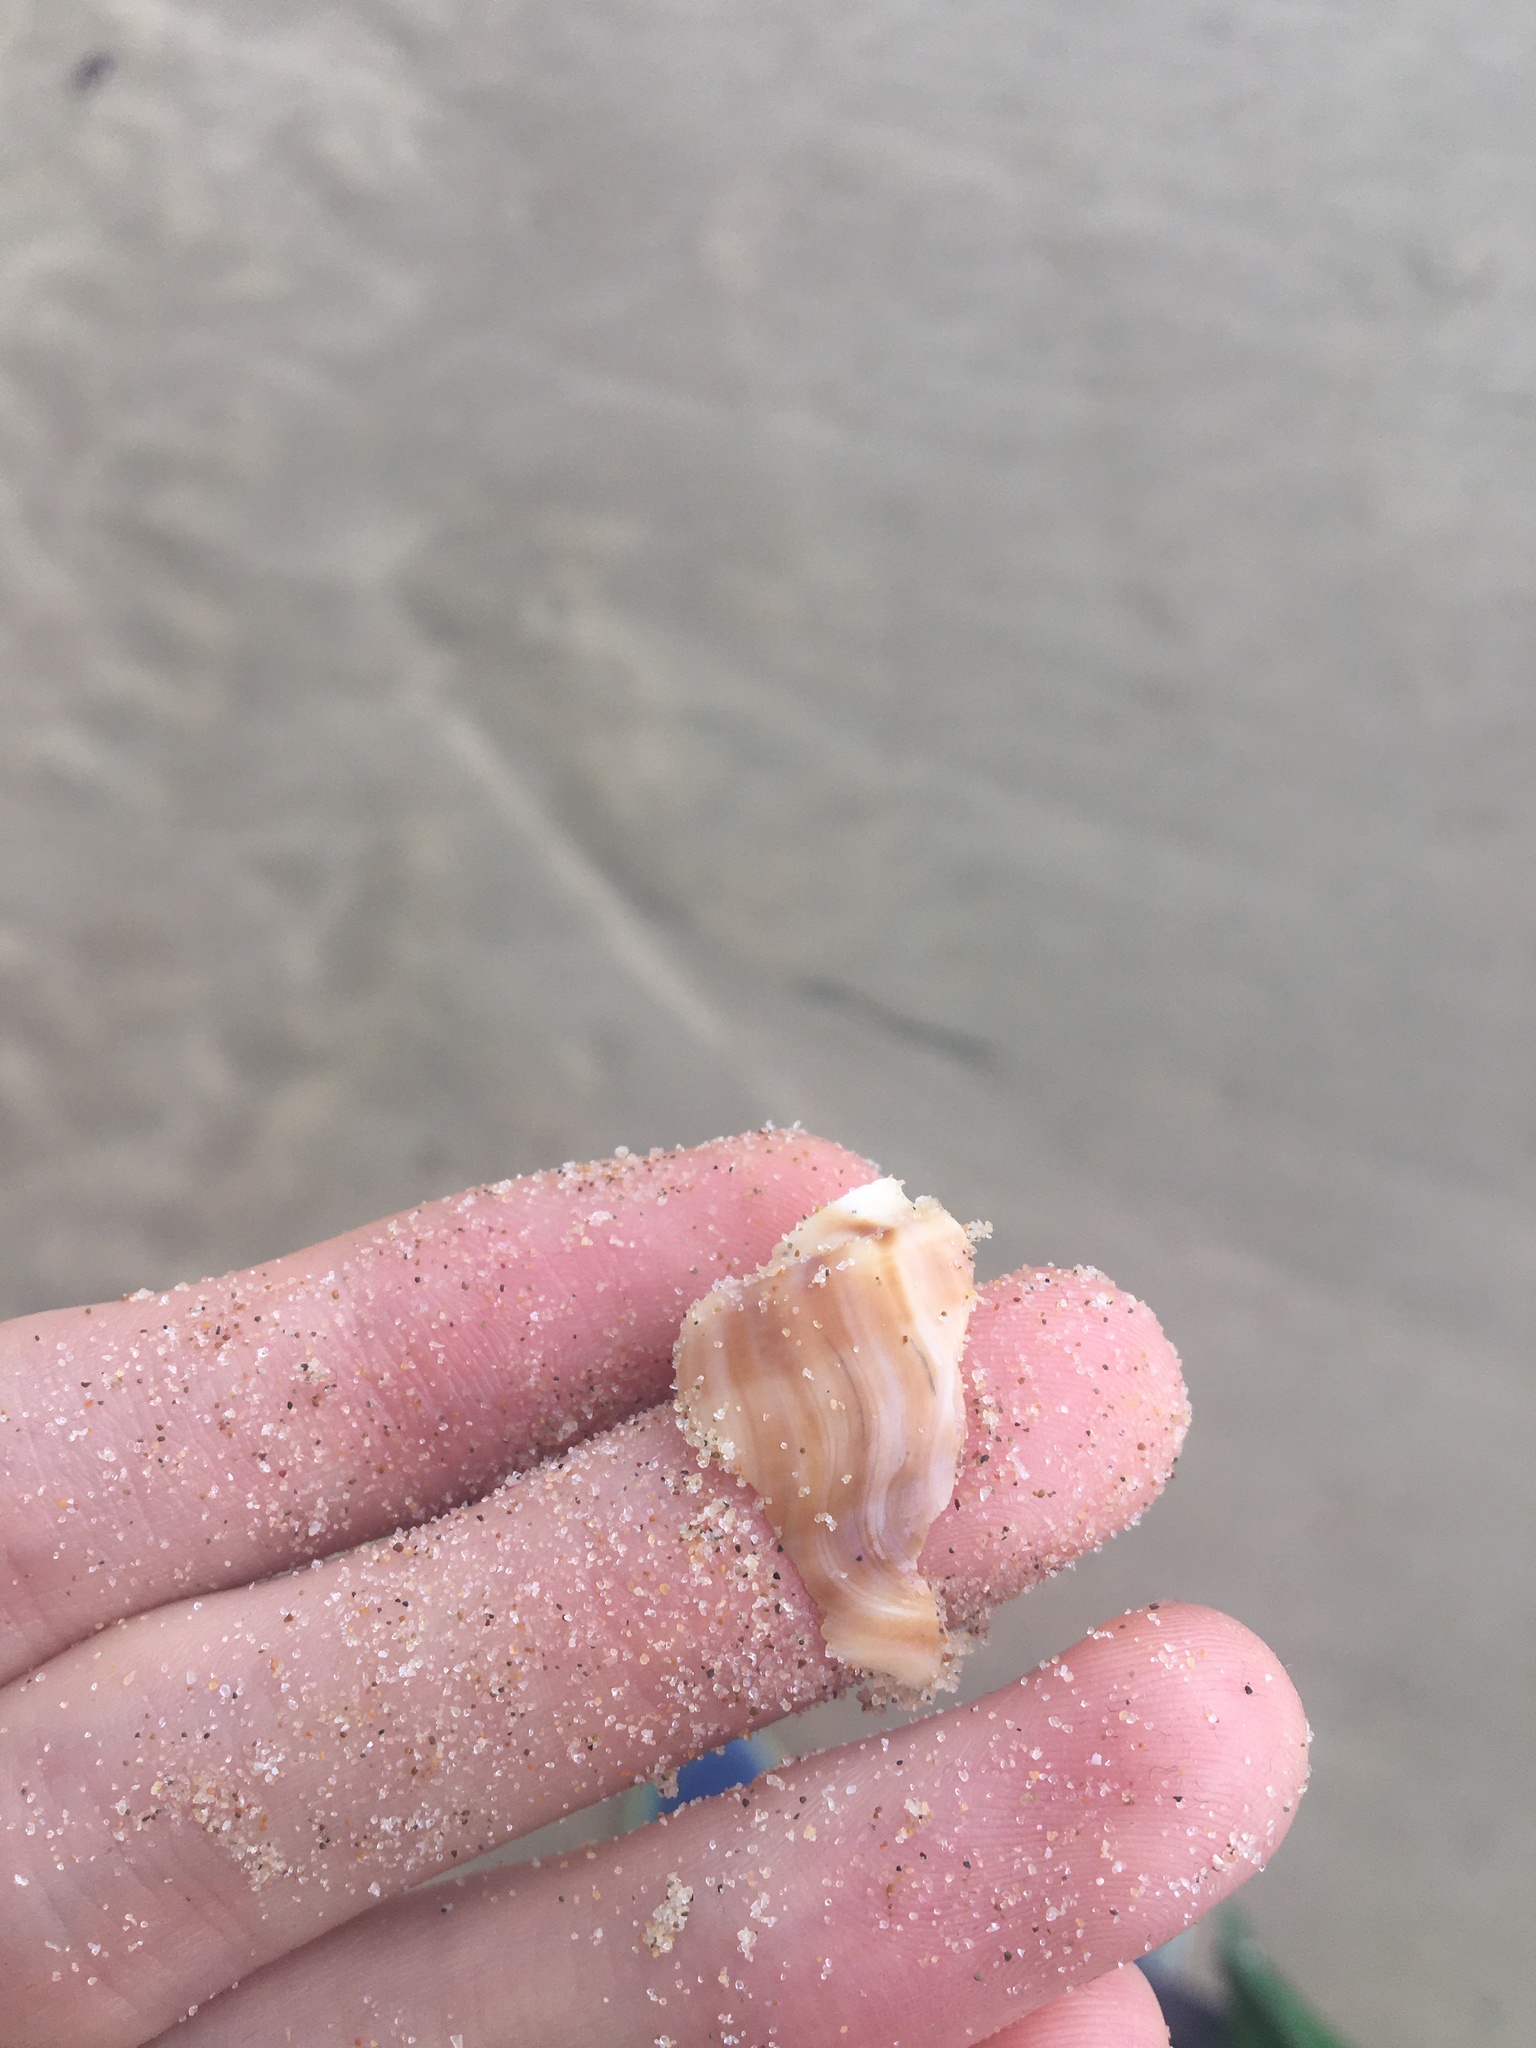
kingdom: Animalia
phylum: Mollusca
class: Gastropoda
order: Littorinimorpha
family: Struthiolariidae
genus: Tylospira
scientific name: Tylospira scutulata
